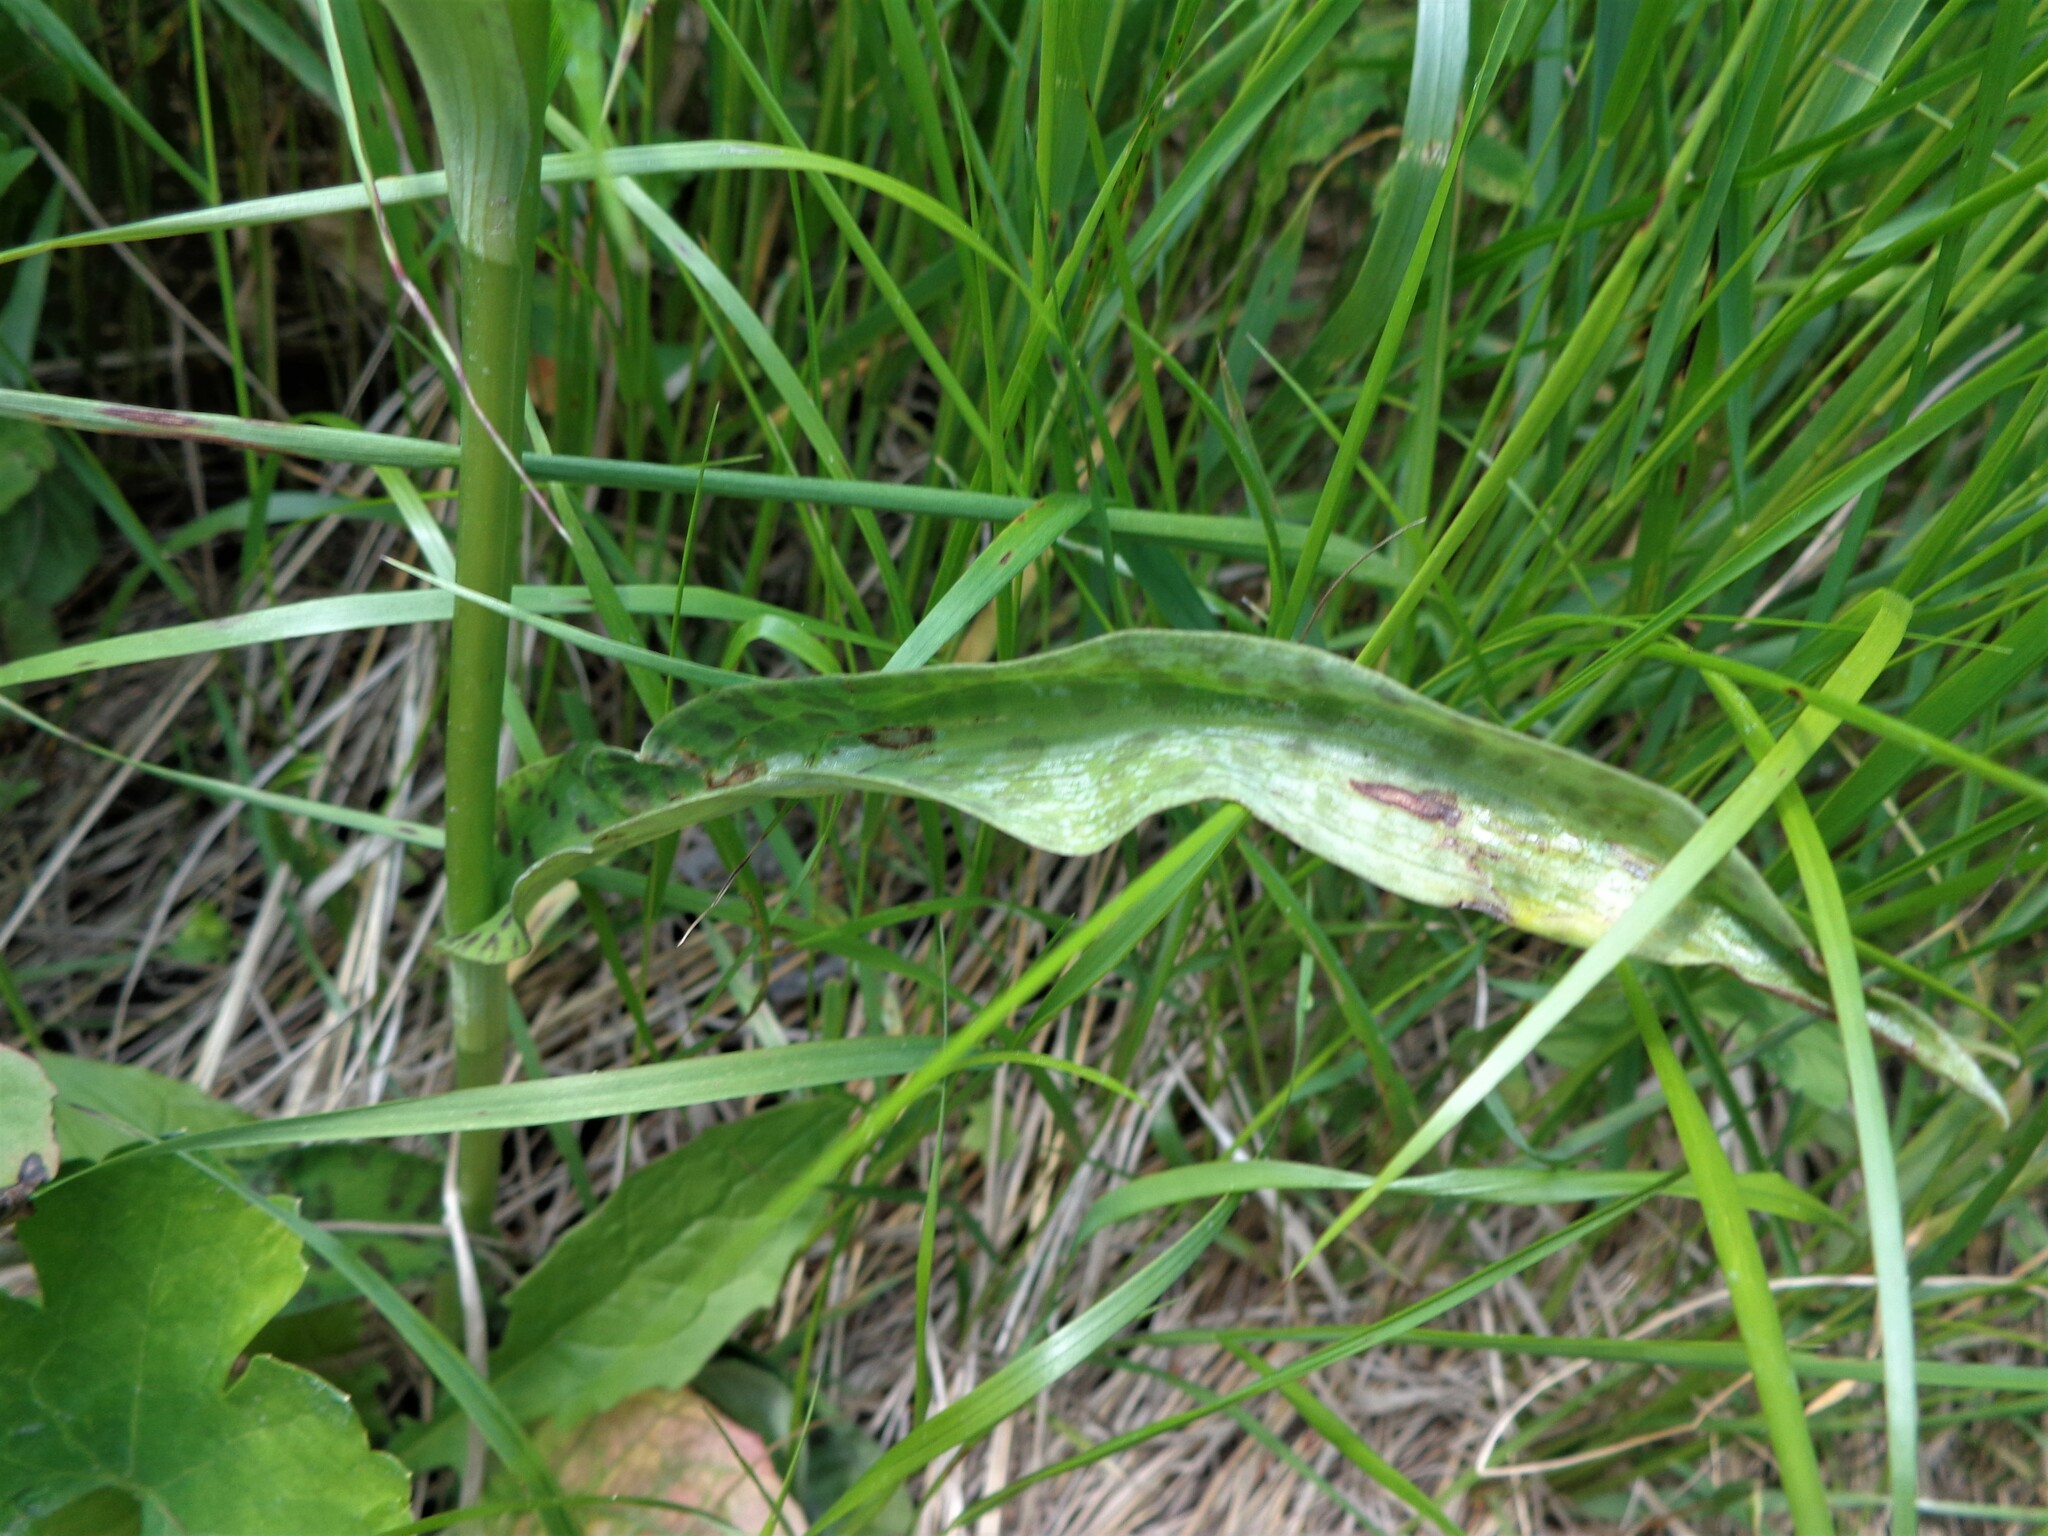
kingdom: Plantae
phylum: Tracheophyta
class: Liliopsida
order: Asparagales
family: Orchidaceae
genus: Dactylorhiza
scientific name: Dactylorhiza maculata
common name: Heath spotted-orchid
